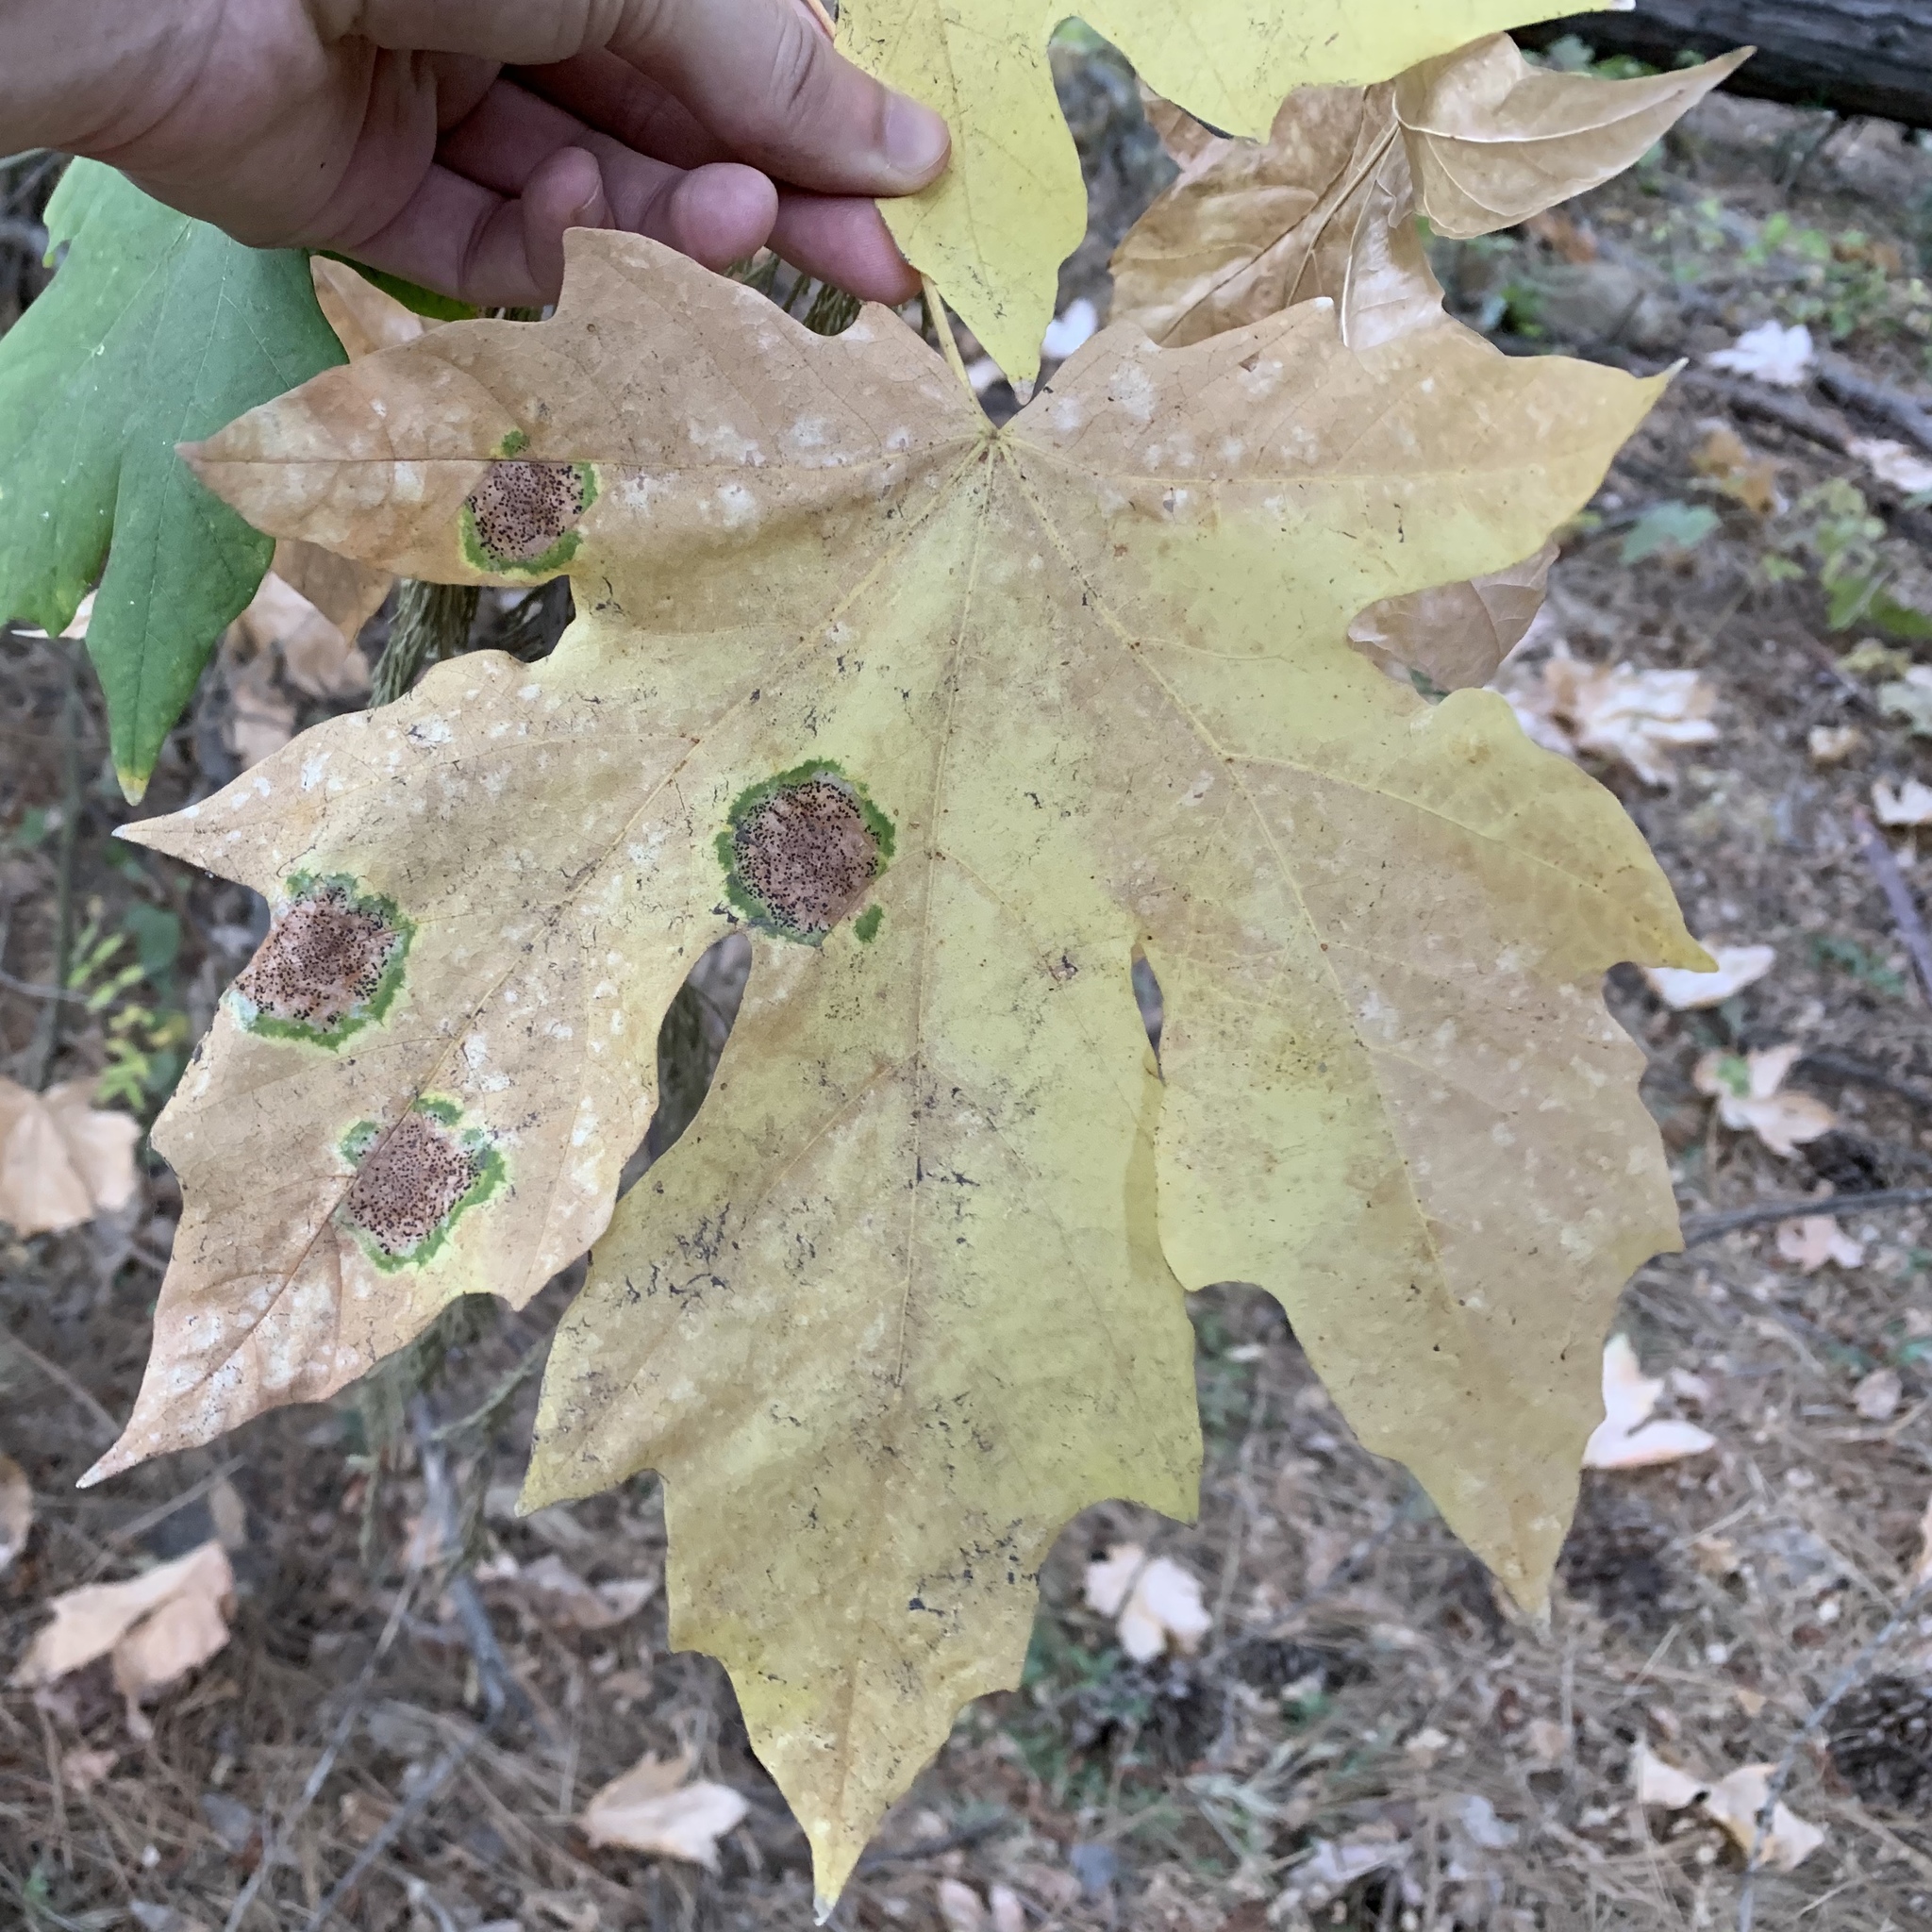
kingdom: Fungi
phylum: Ascomycota
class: Leotiomycetes
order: Rhytismatales
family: Rhytismataceae
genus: Rhytisma
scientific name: Rhytisma punctatum
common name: Speckled tar spot
